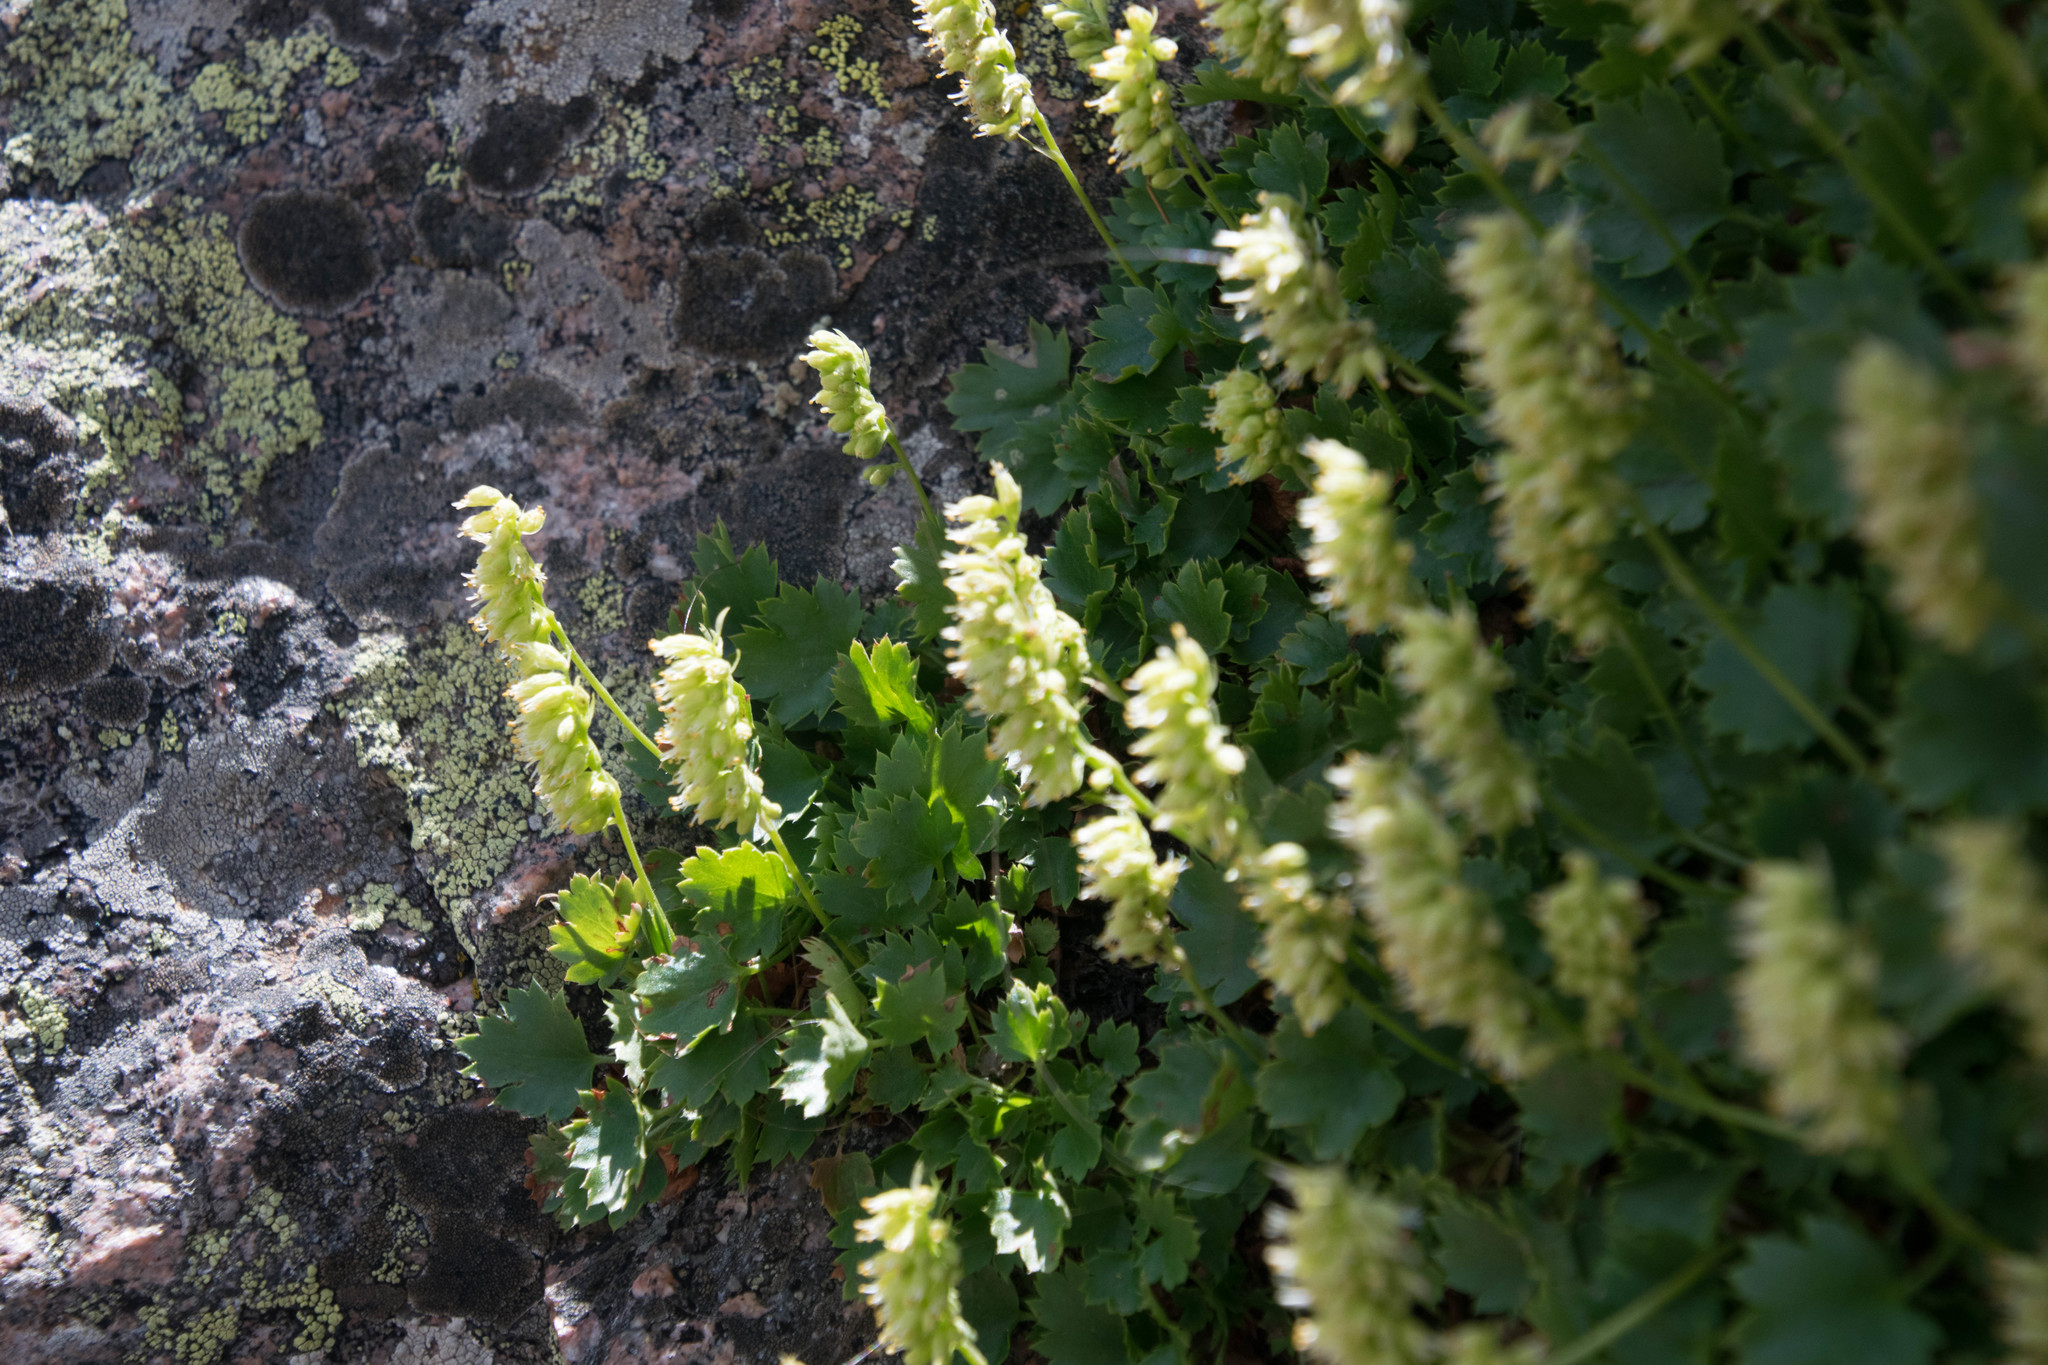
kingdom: Plantae
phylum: Tracheophyta
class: Magnoliopsida
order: Saxifragales
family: Saxifragaceae
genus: Heuchera
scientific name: Heuchera bracteata
